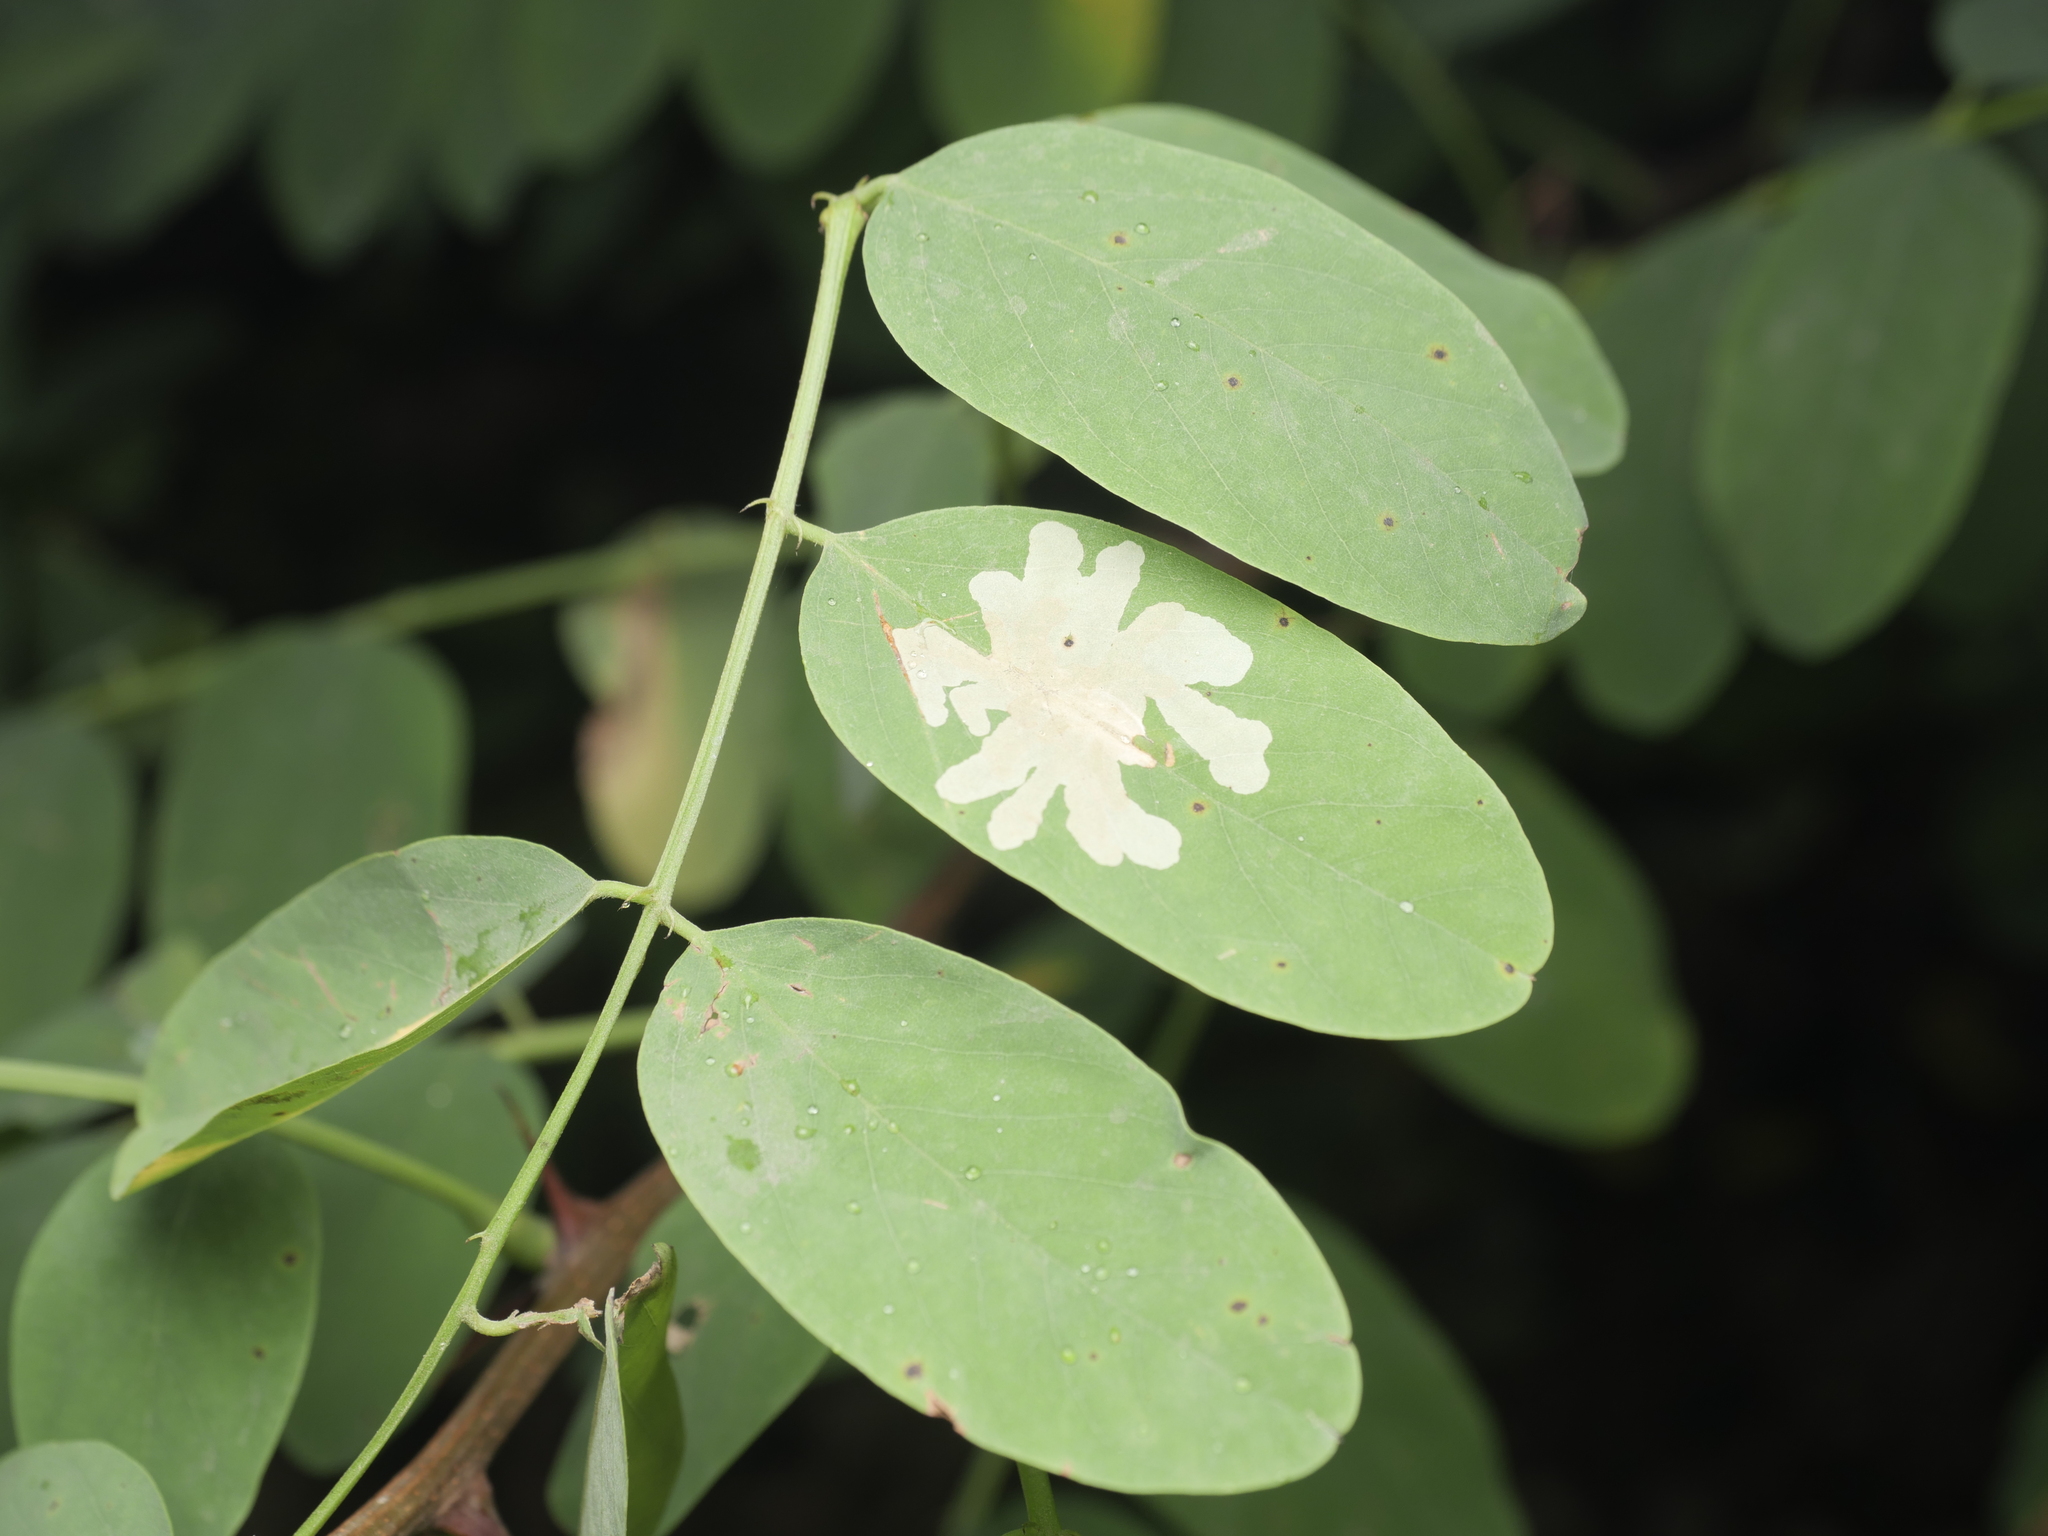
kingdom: Animalia
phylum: Arthropoda
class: Insecta
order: Lepidoptera
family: Gracillariidae
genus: Parectopa
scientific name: Parectopa robiniella
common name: Locust digitate leafminer
